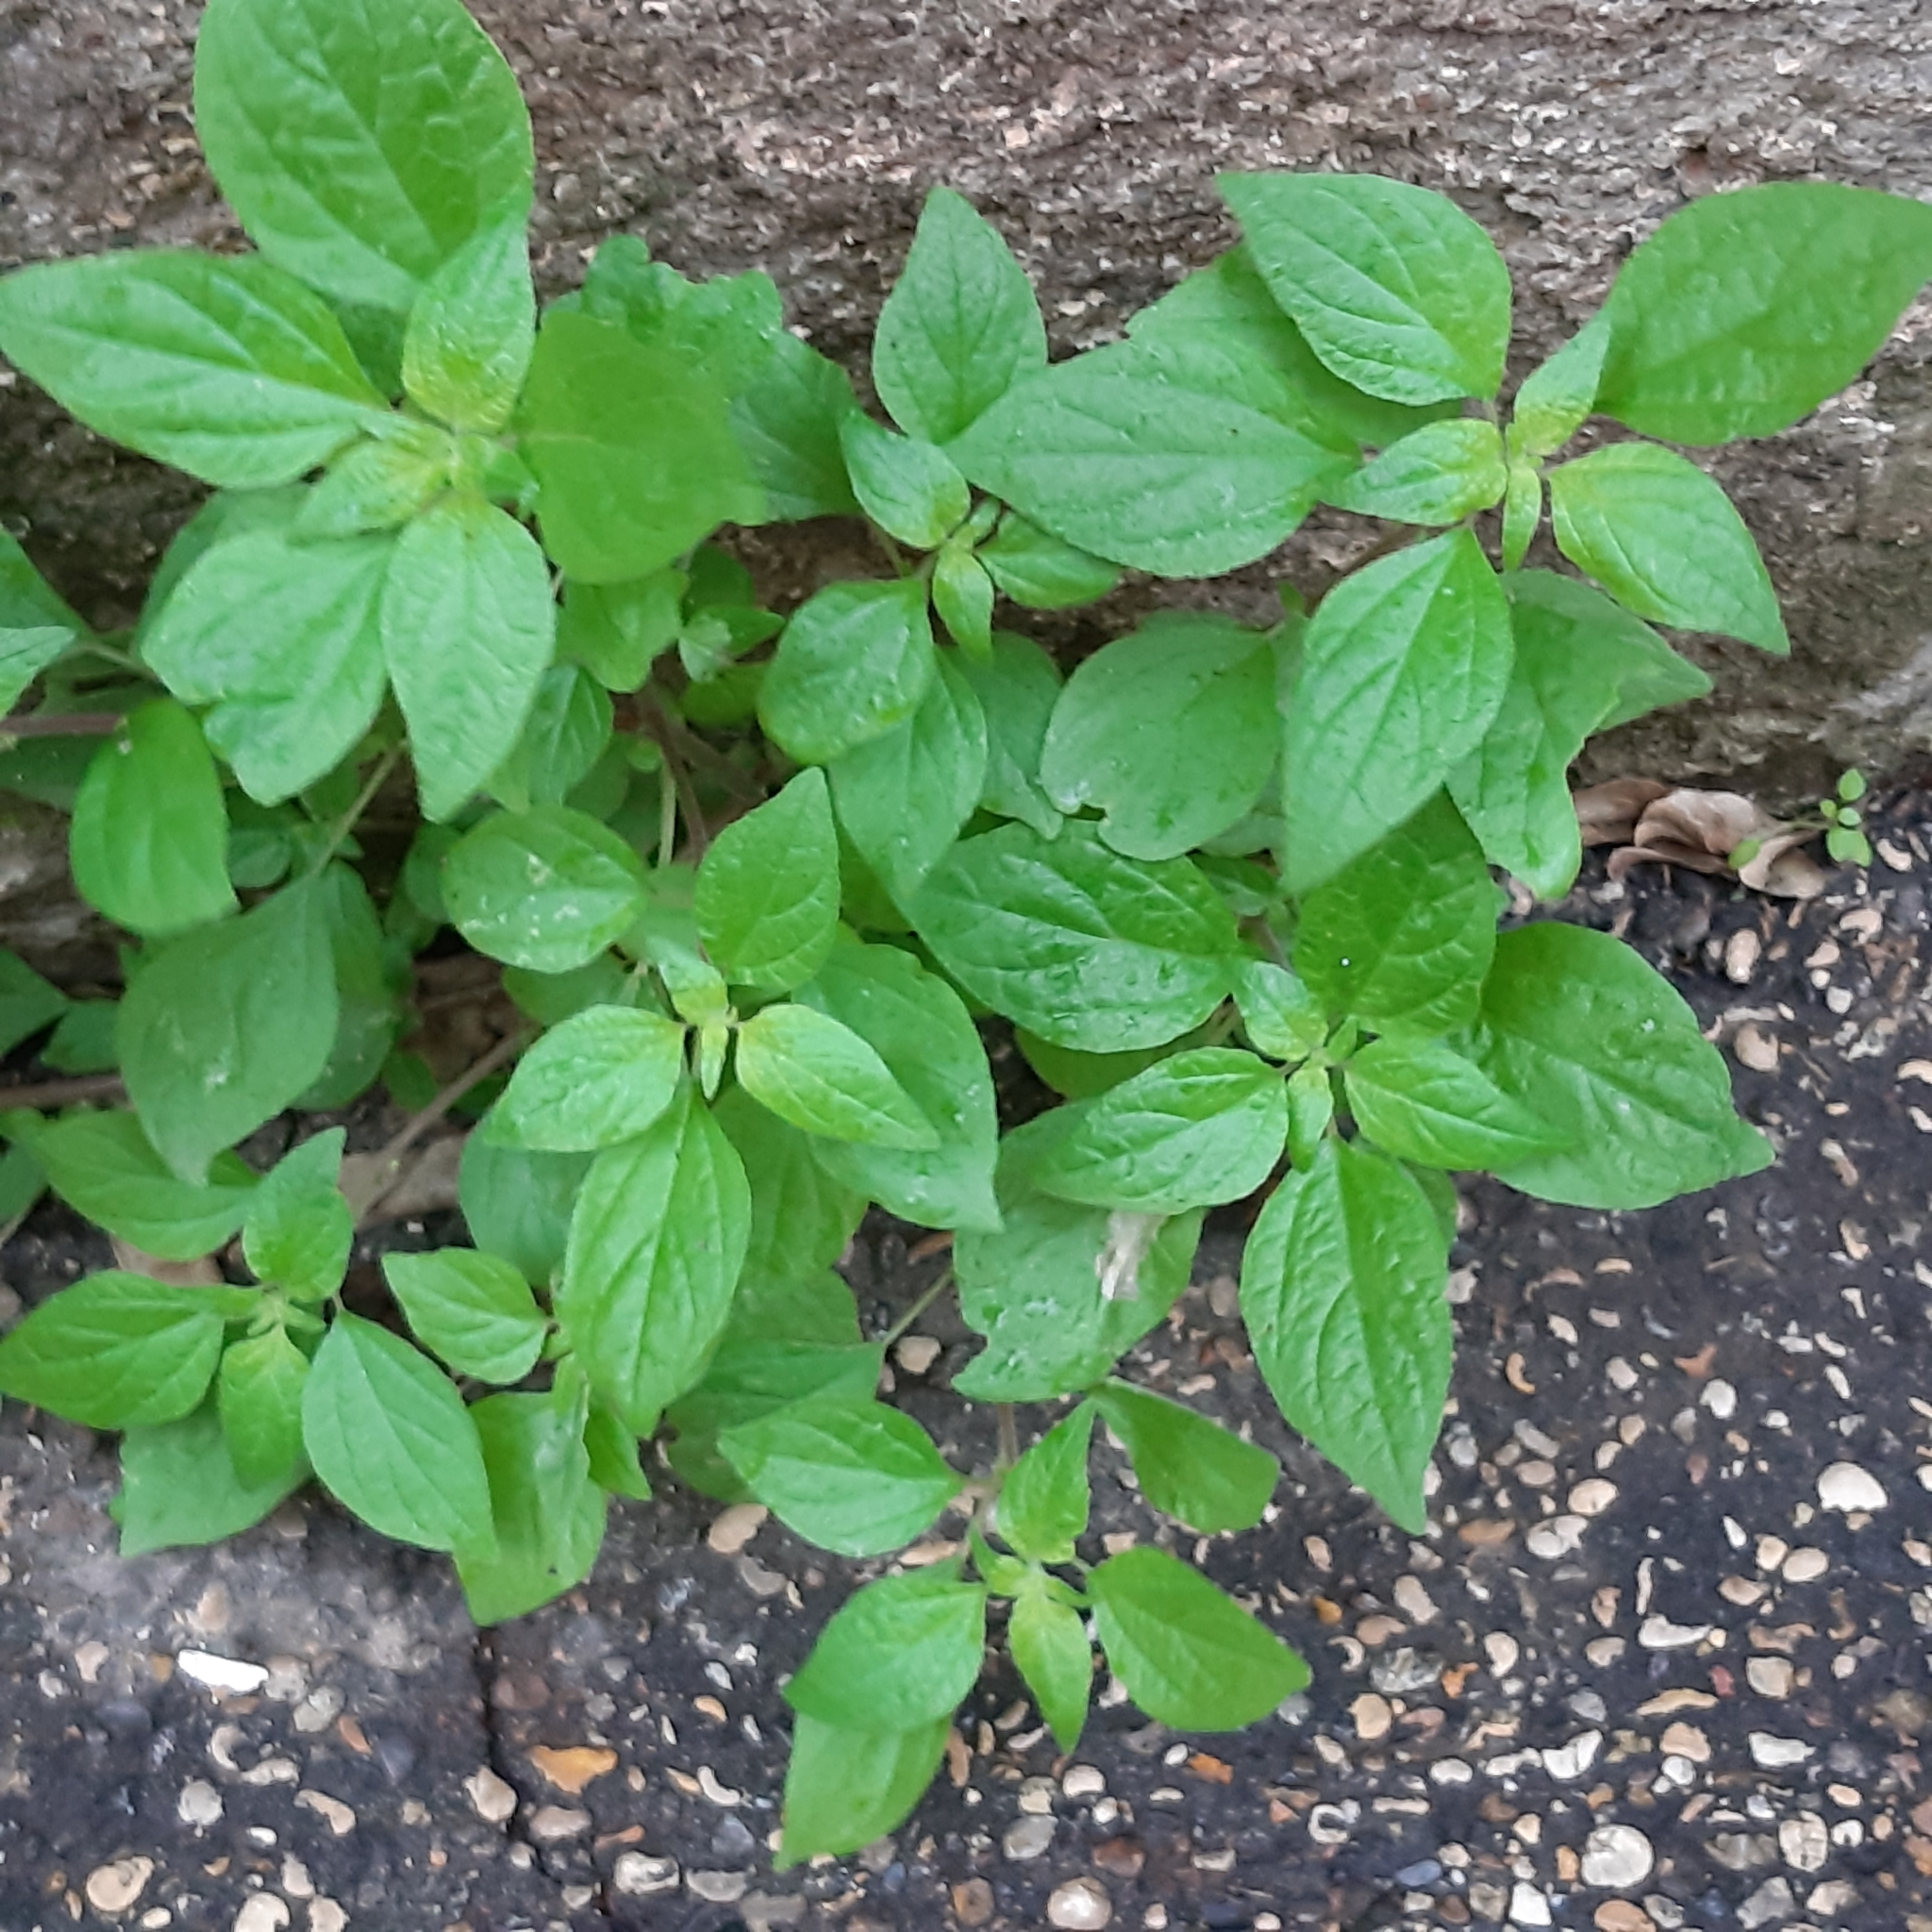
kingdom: Plantae
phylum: Tracheophyta
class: Magnoliopsida
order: Rosales
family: Urticaceae
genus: Parietaria
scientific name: Parietaria judaica
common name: Pellitory-of-the-wall
